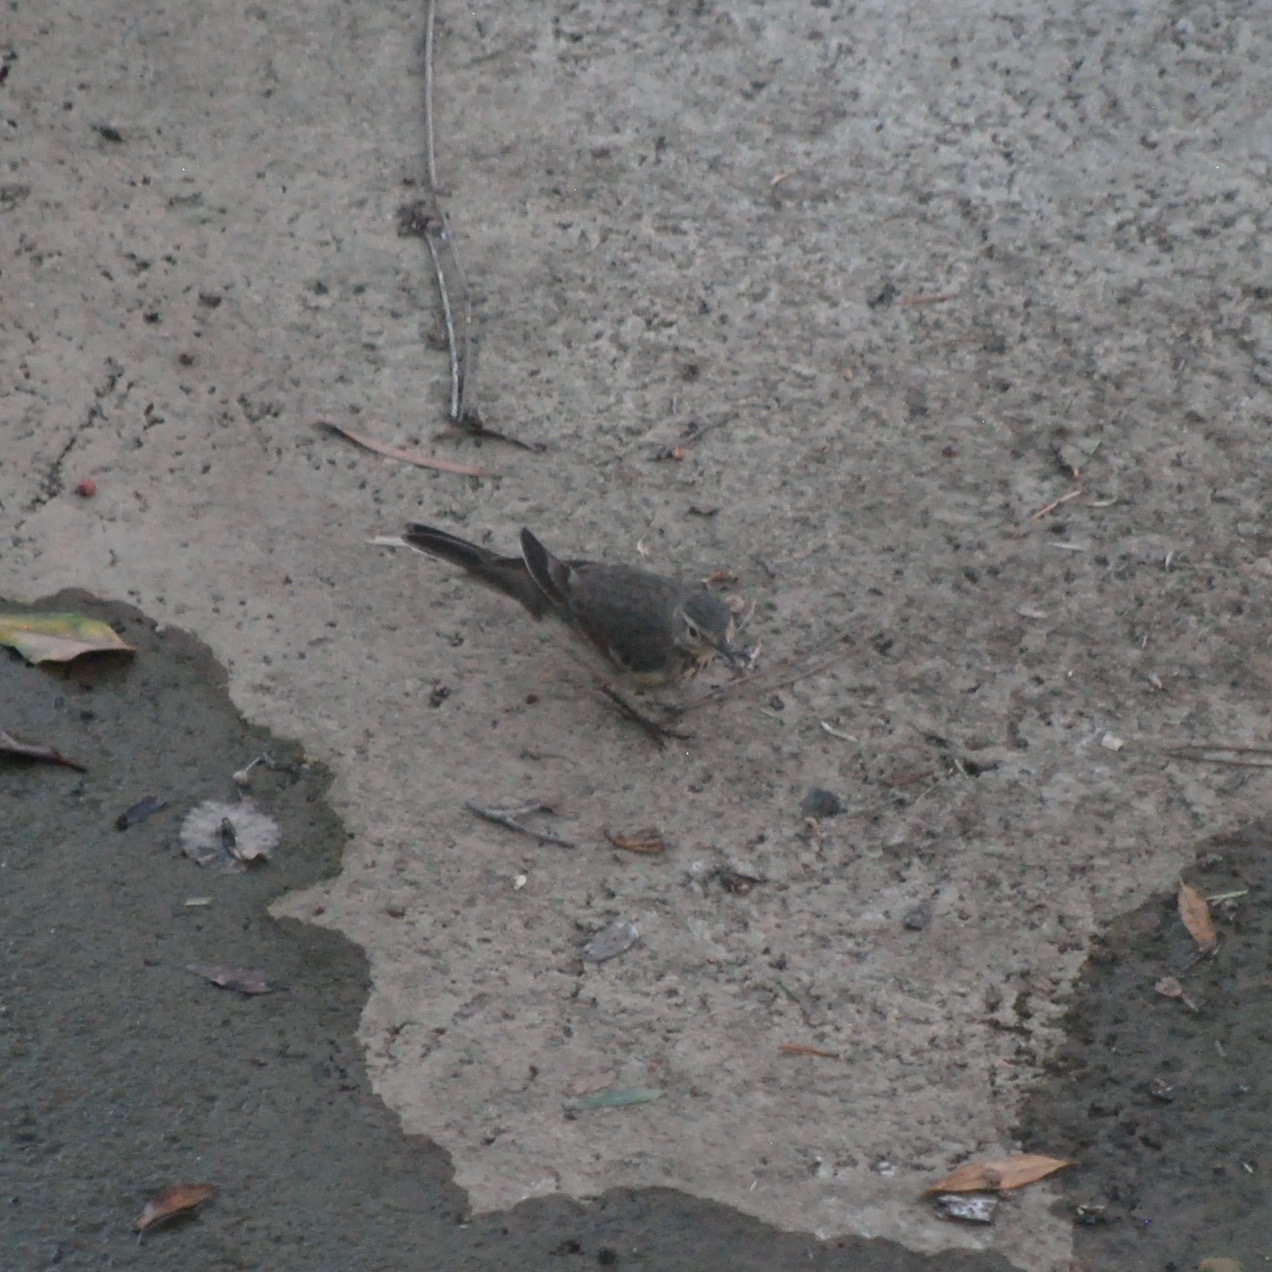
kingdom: Animalia
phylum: Chordata
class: Aves
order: Passeriformes
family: Motacillidae
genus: Anthus
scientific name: Anthus rubescens
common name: Buff-bellied pipit
